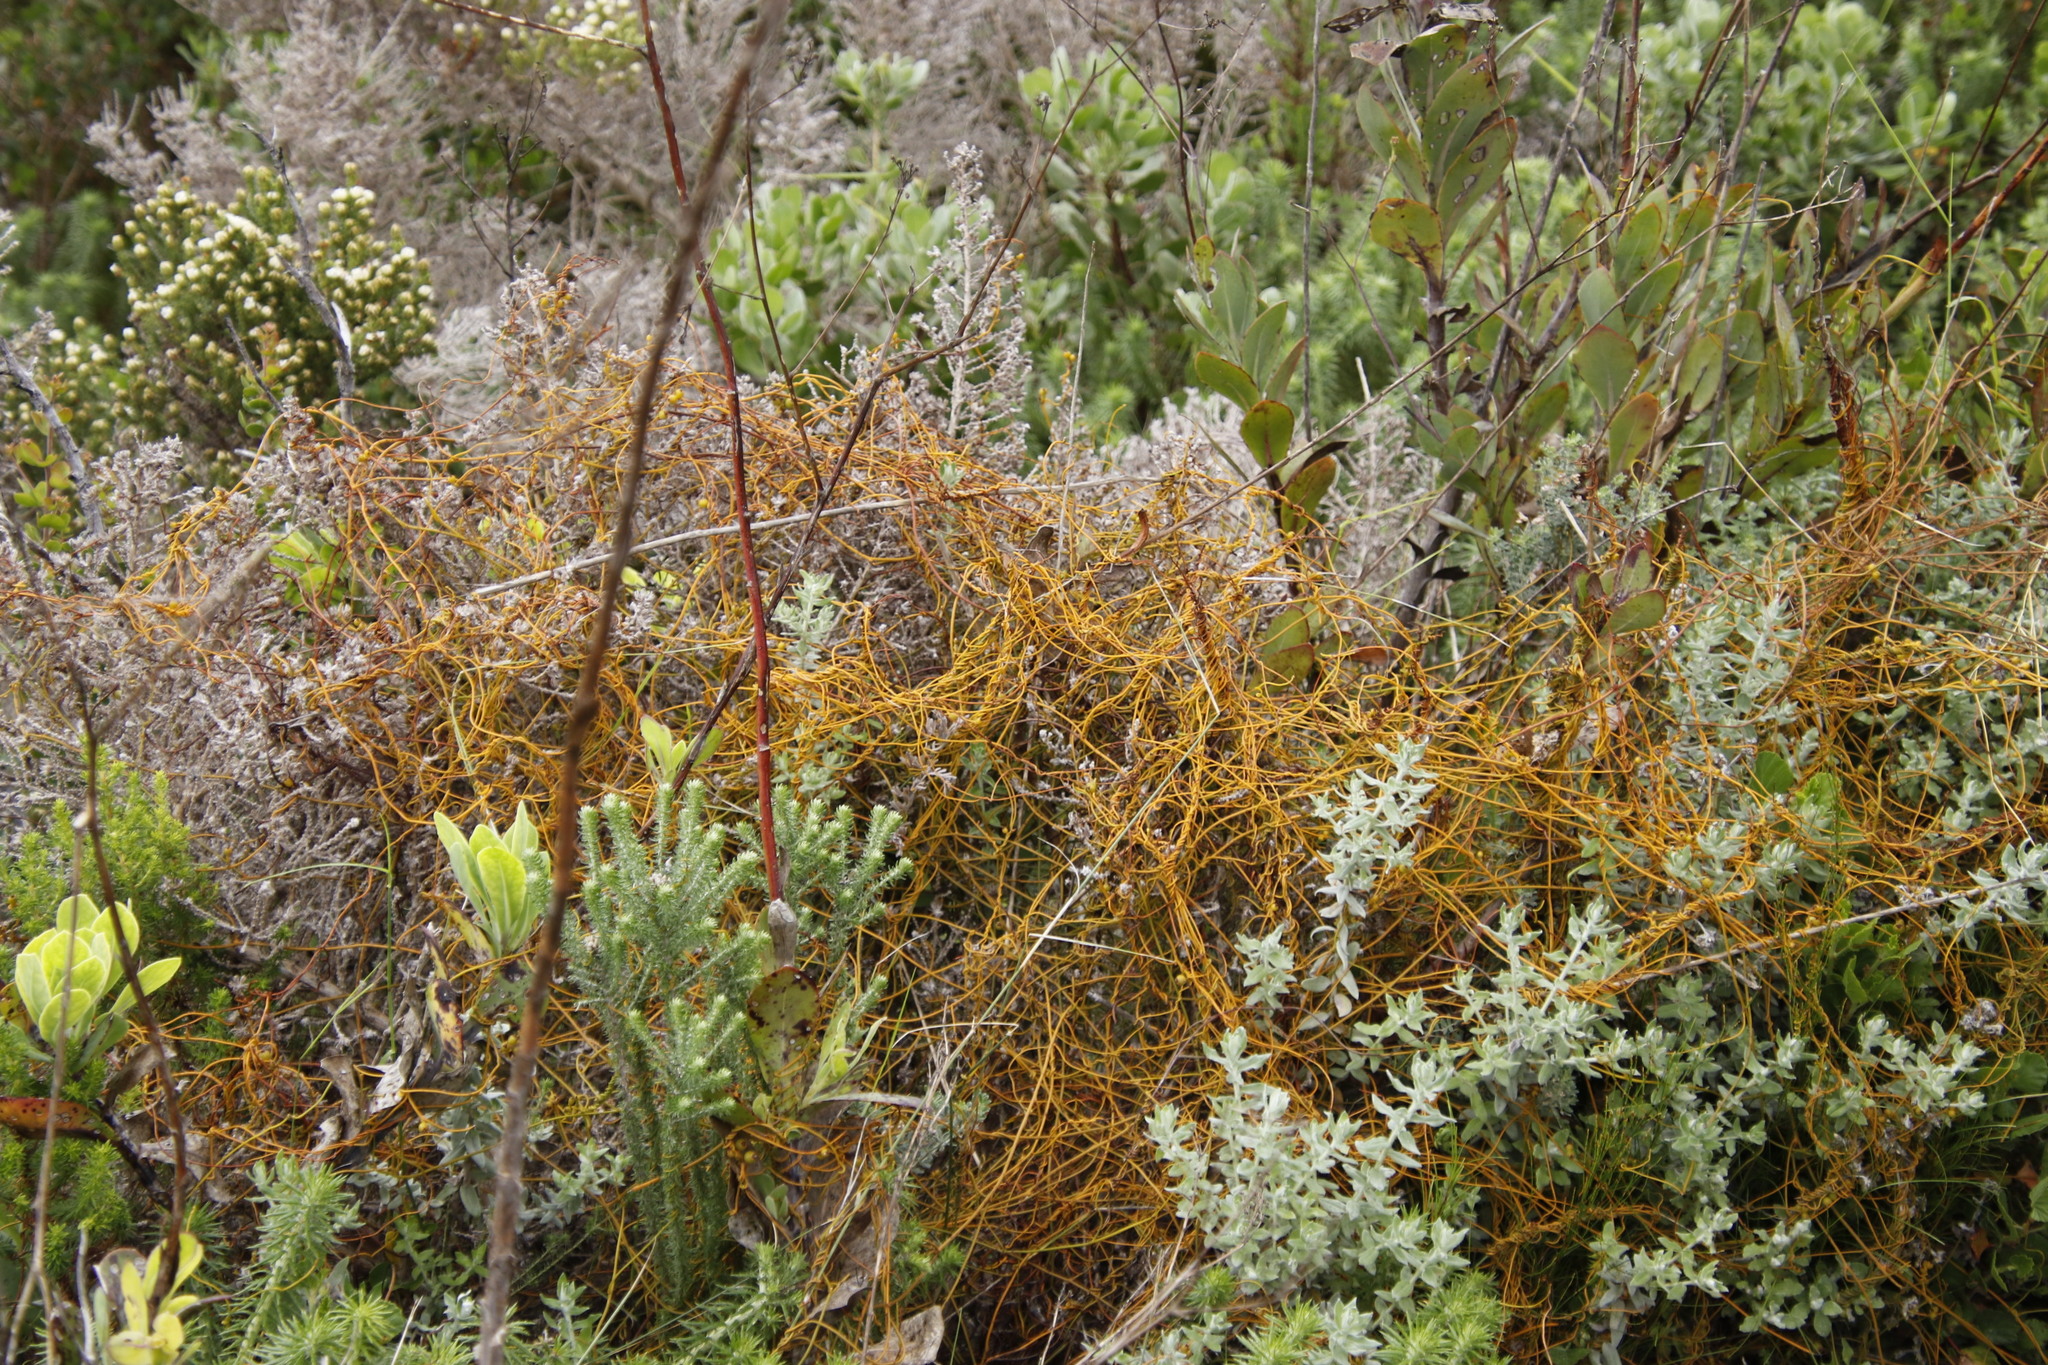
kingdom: Plantae
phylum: Tracheophyta
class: Magnoliopsida
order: Laurales
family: Lauraceae
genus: Cassytha
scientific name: Cassytha ciliolata
